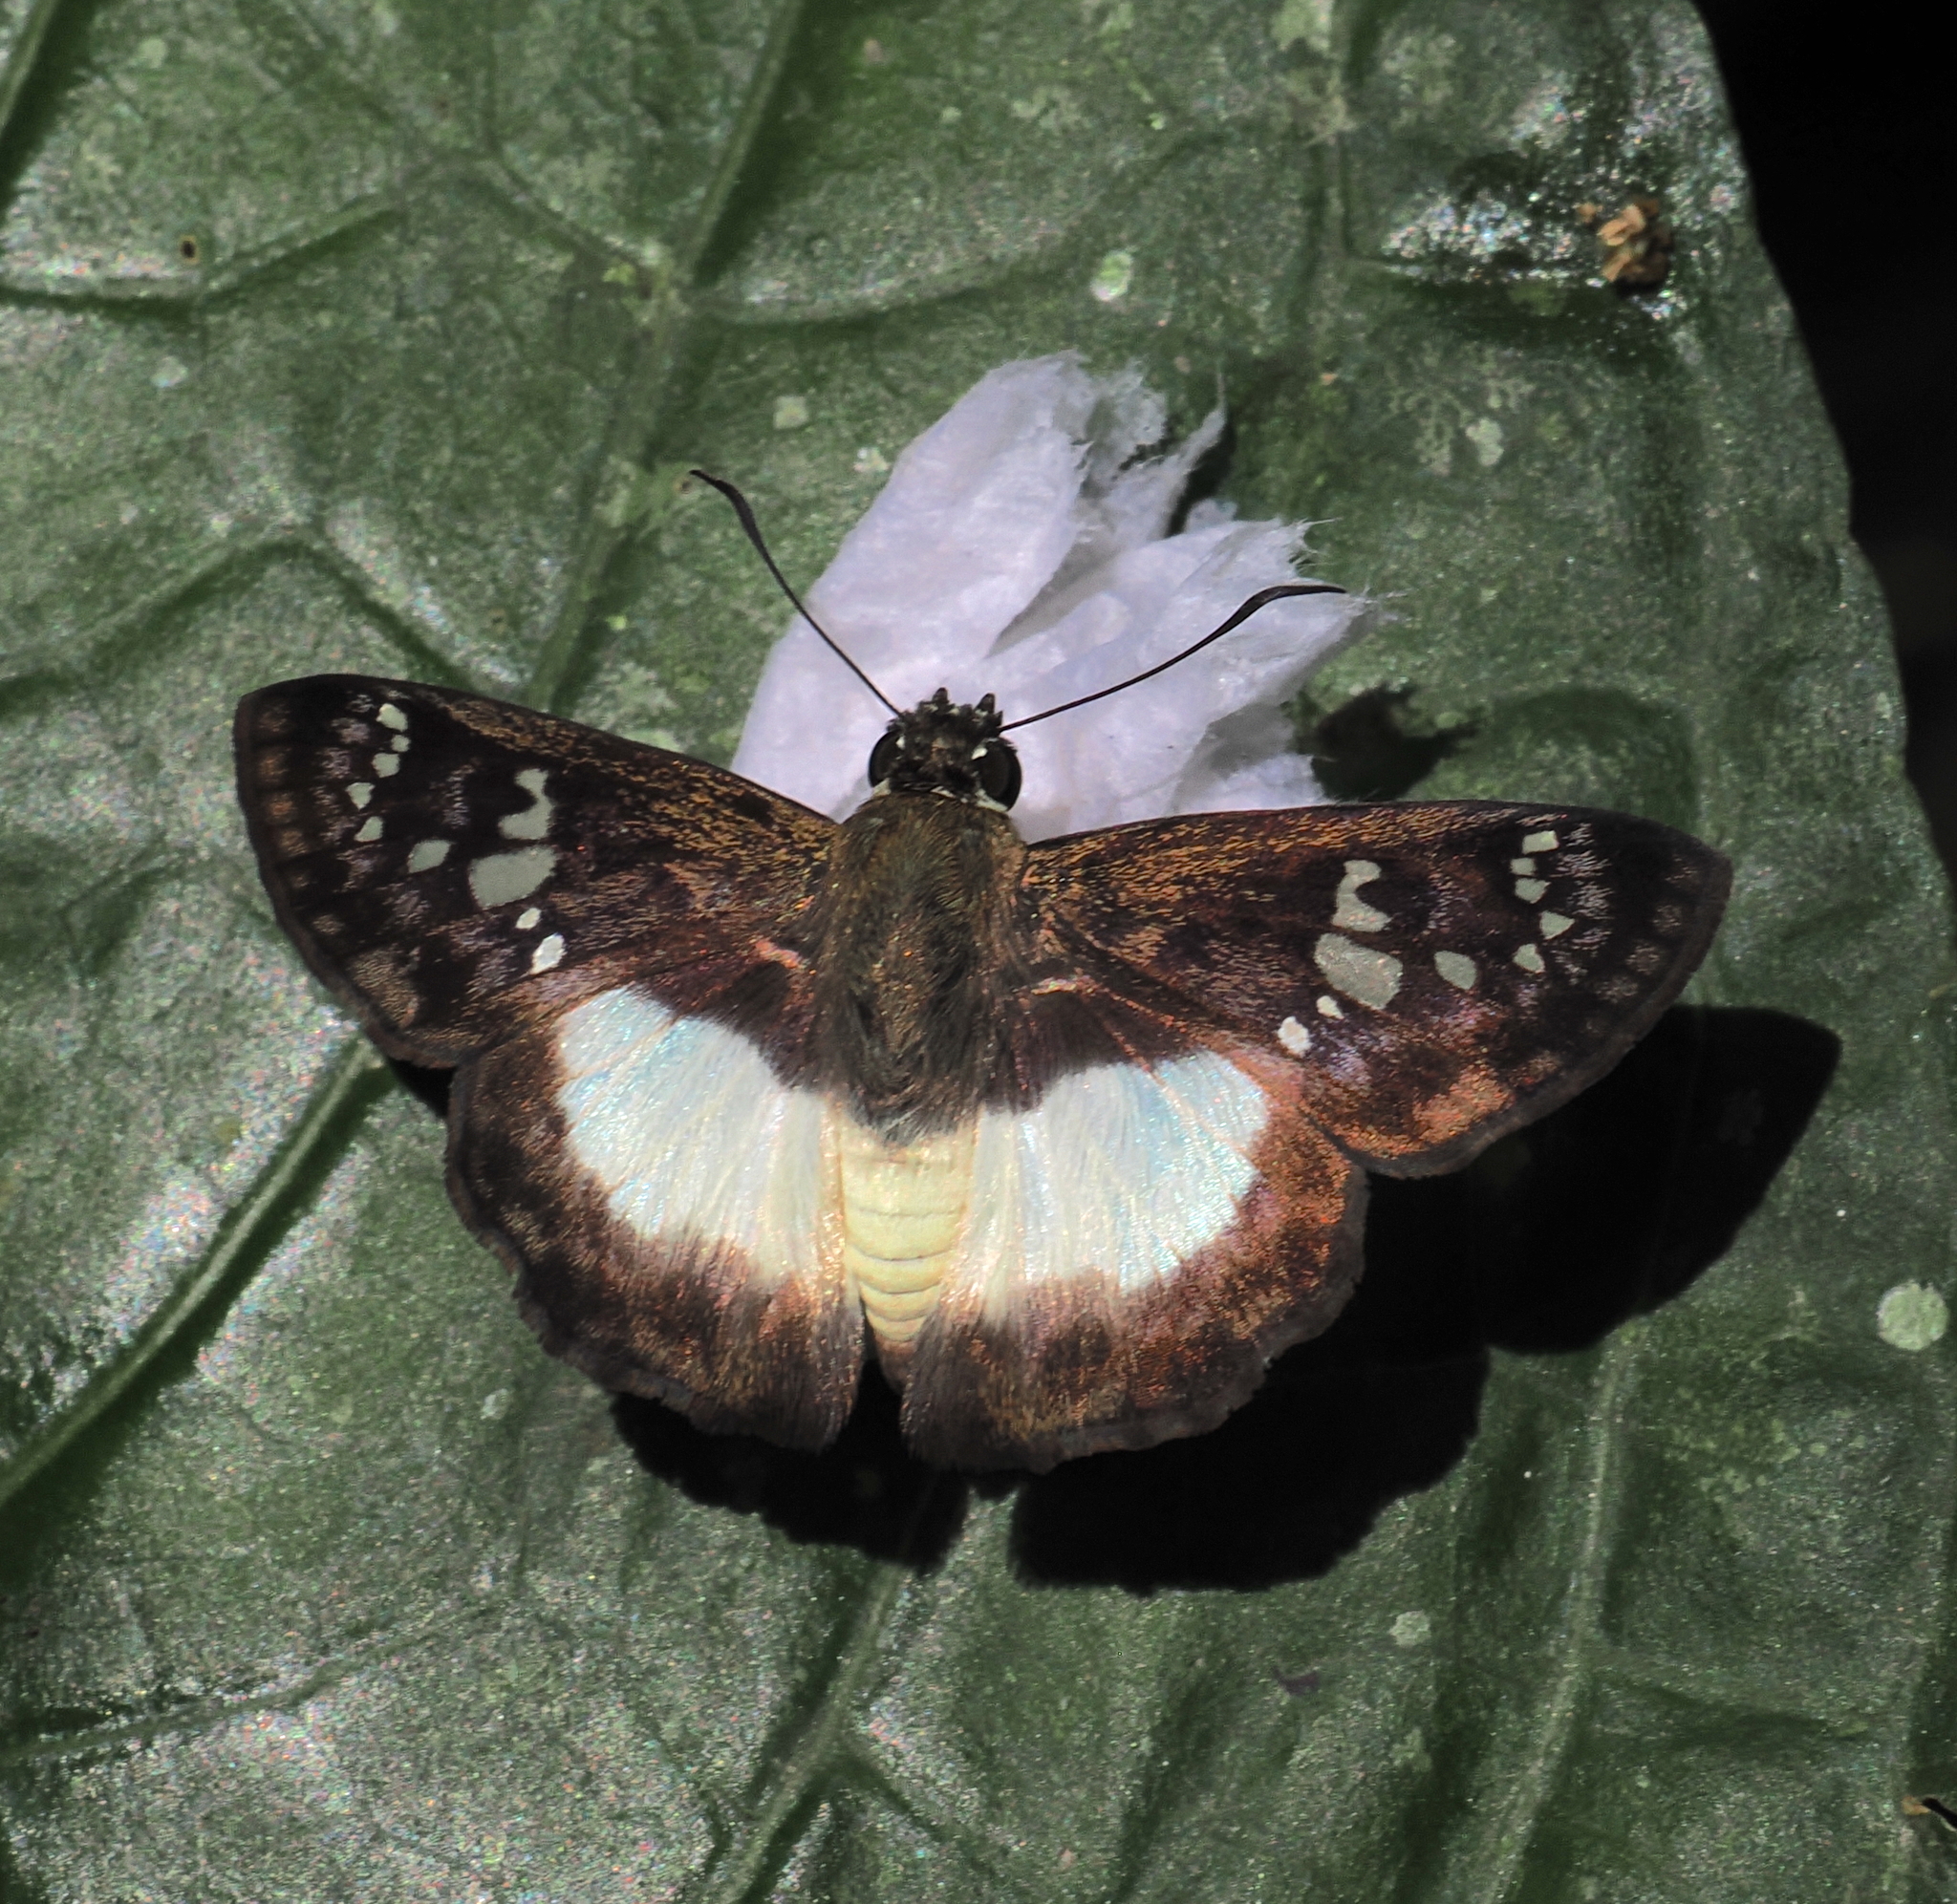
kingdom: Animalia
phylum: Arthropoda
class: Insecta
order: Lepidoptera
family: Hesperiidae
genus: Clito
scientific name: Clito clito
